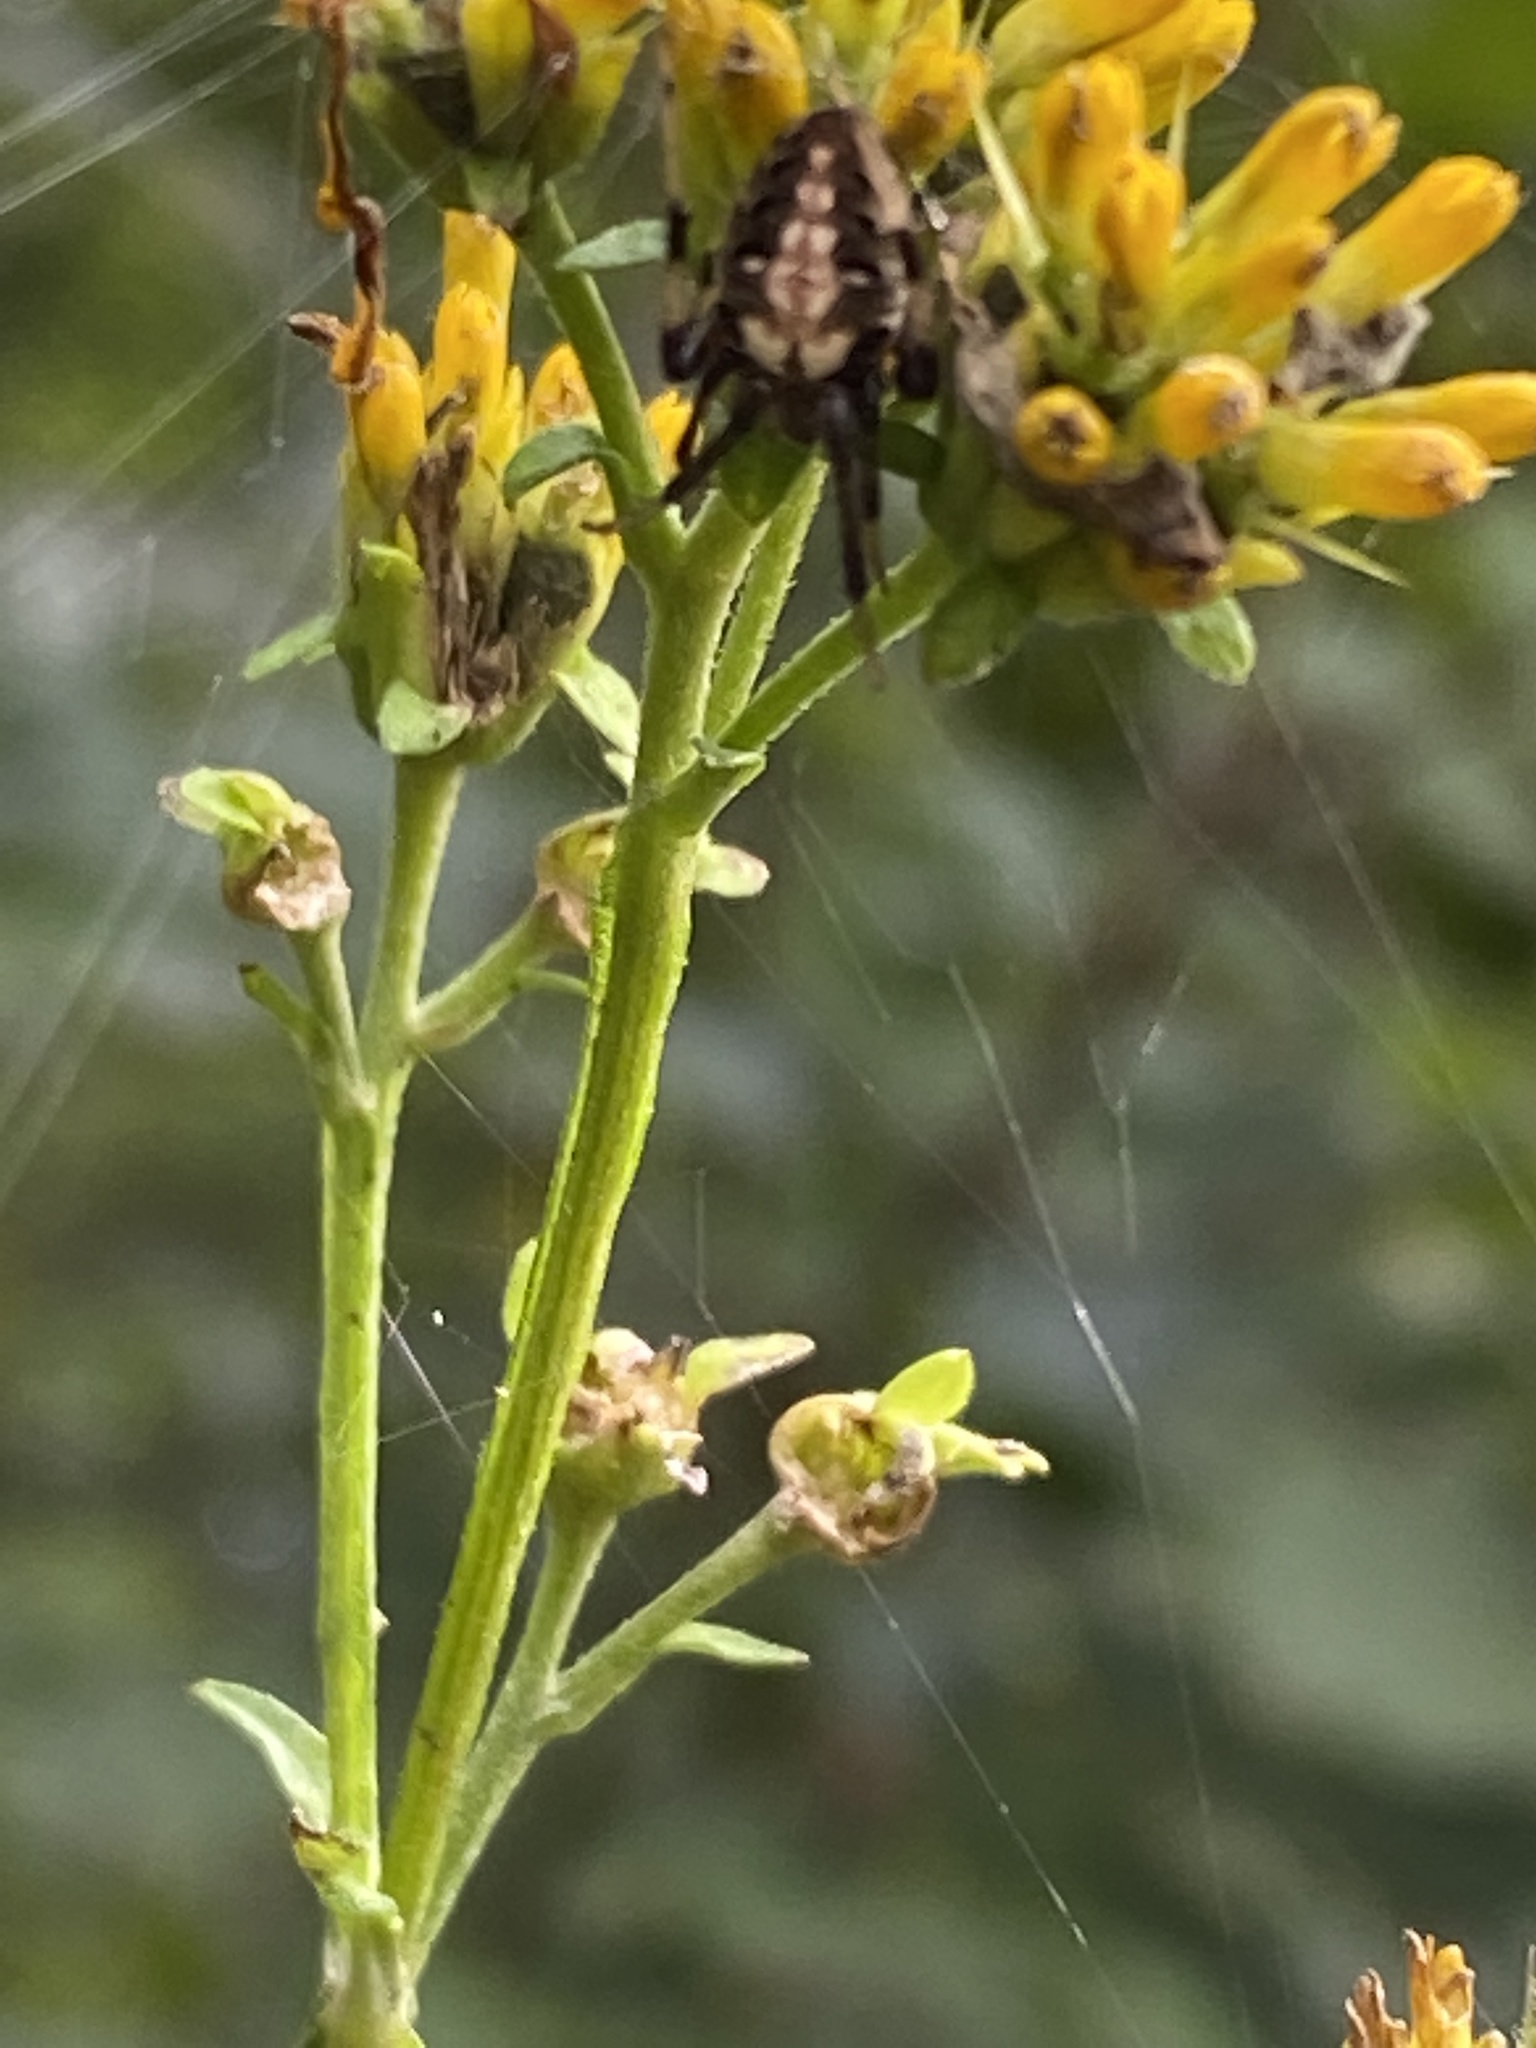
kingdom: Animalia
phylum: Arthropoda
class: Arachnida
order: Araneae
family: Araneidae
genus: Neoscona
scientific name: Neoscona arabesca
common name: Orb weavers
